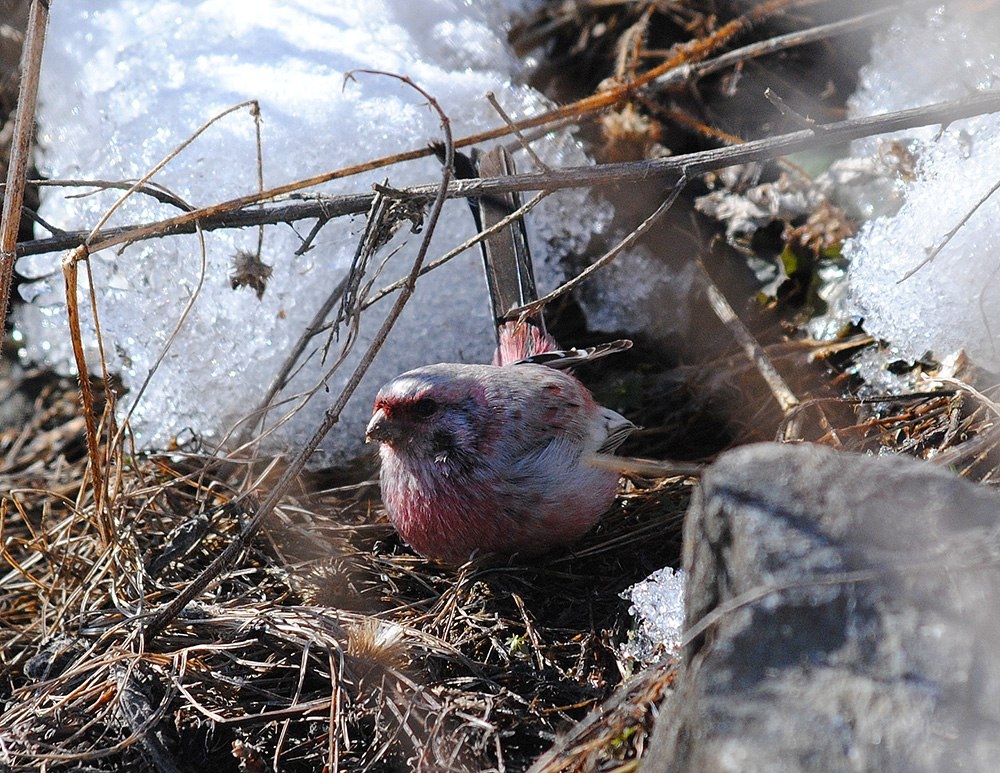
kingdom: Animalia
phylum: Chordata
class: Aves
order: Passeriformes
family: Fringillidae
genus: Carpodacus
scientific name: Carpodacus sibiricus
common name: Long-tailed rosefinch
